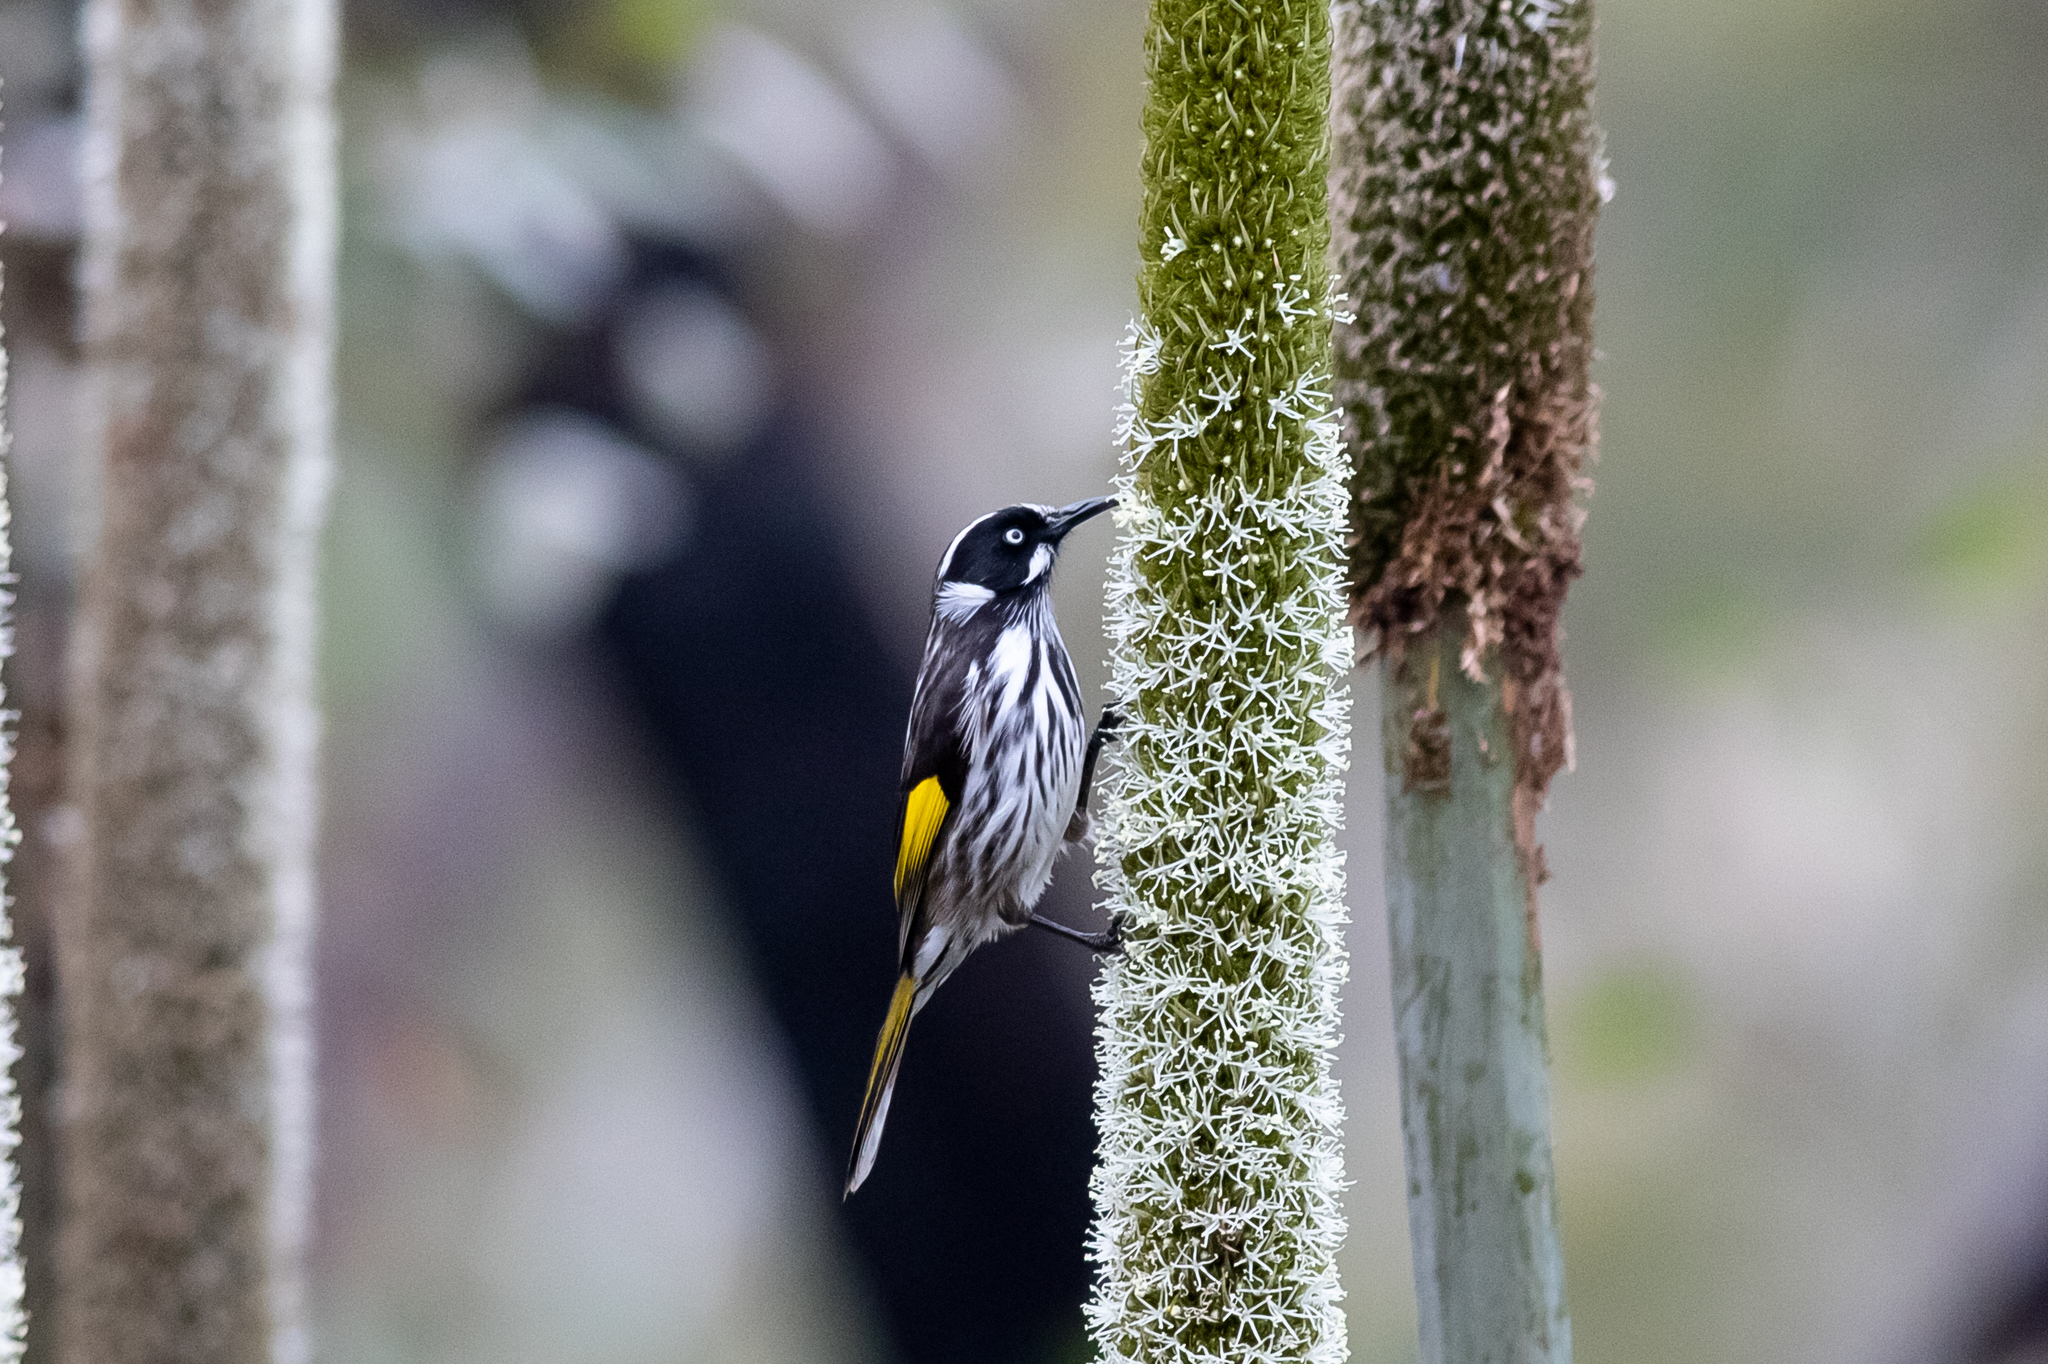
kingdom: Animalia
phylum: Chordata
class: Aves
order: Passeriformes
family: Meliphagidae
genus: Phylidonyris
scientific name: Phylidonyris novaehollandiae
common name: New holland honeyeater
